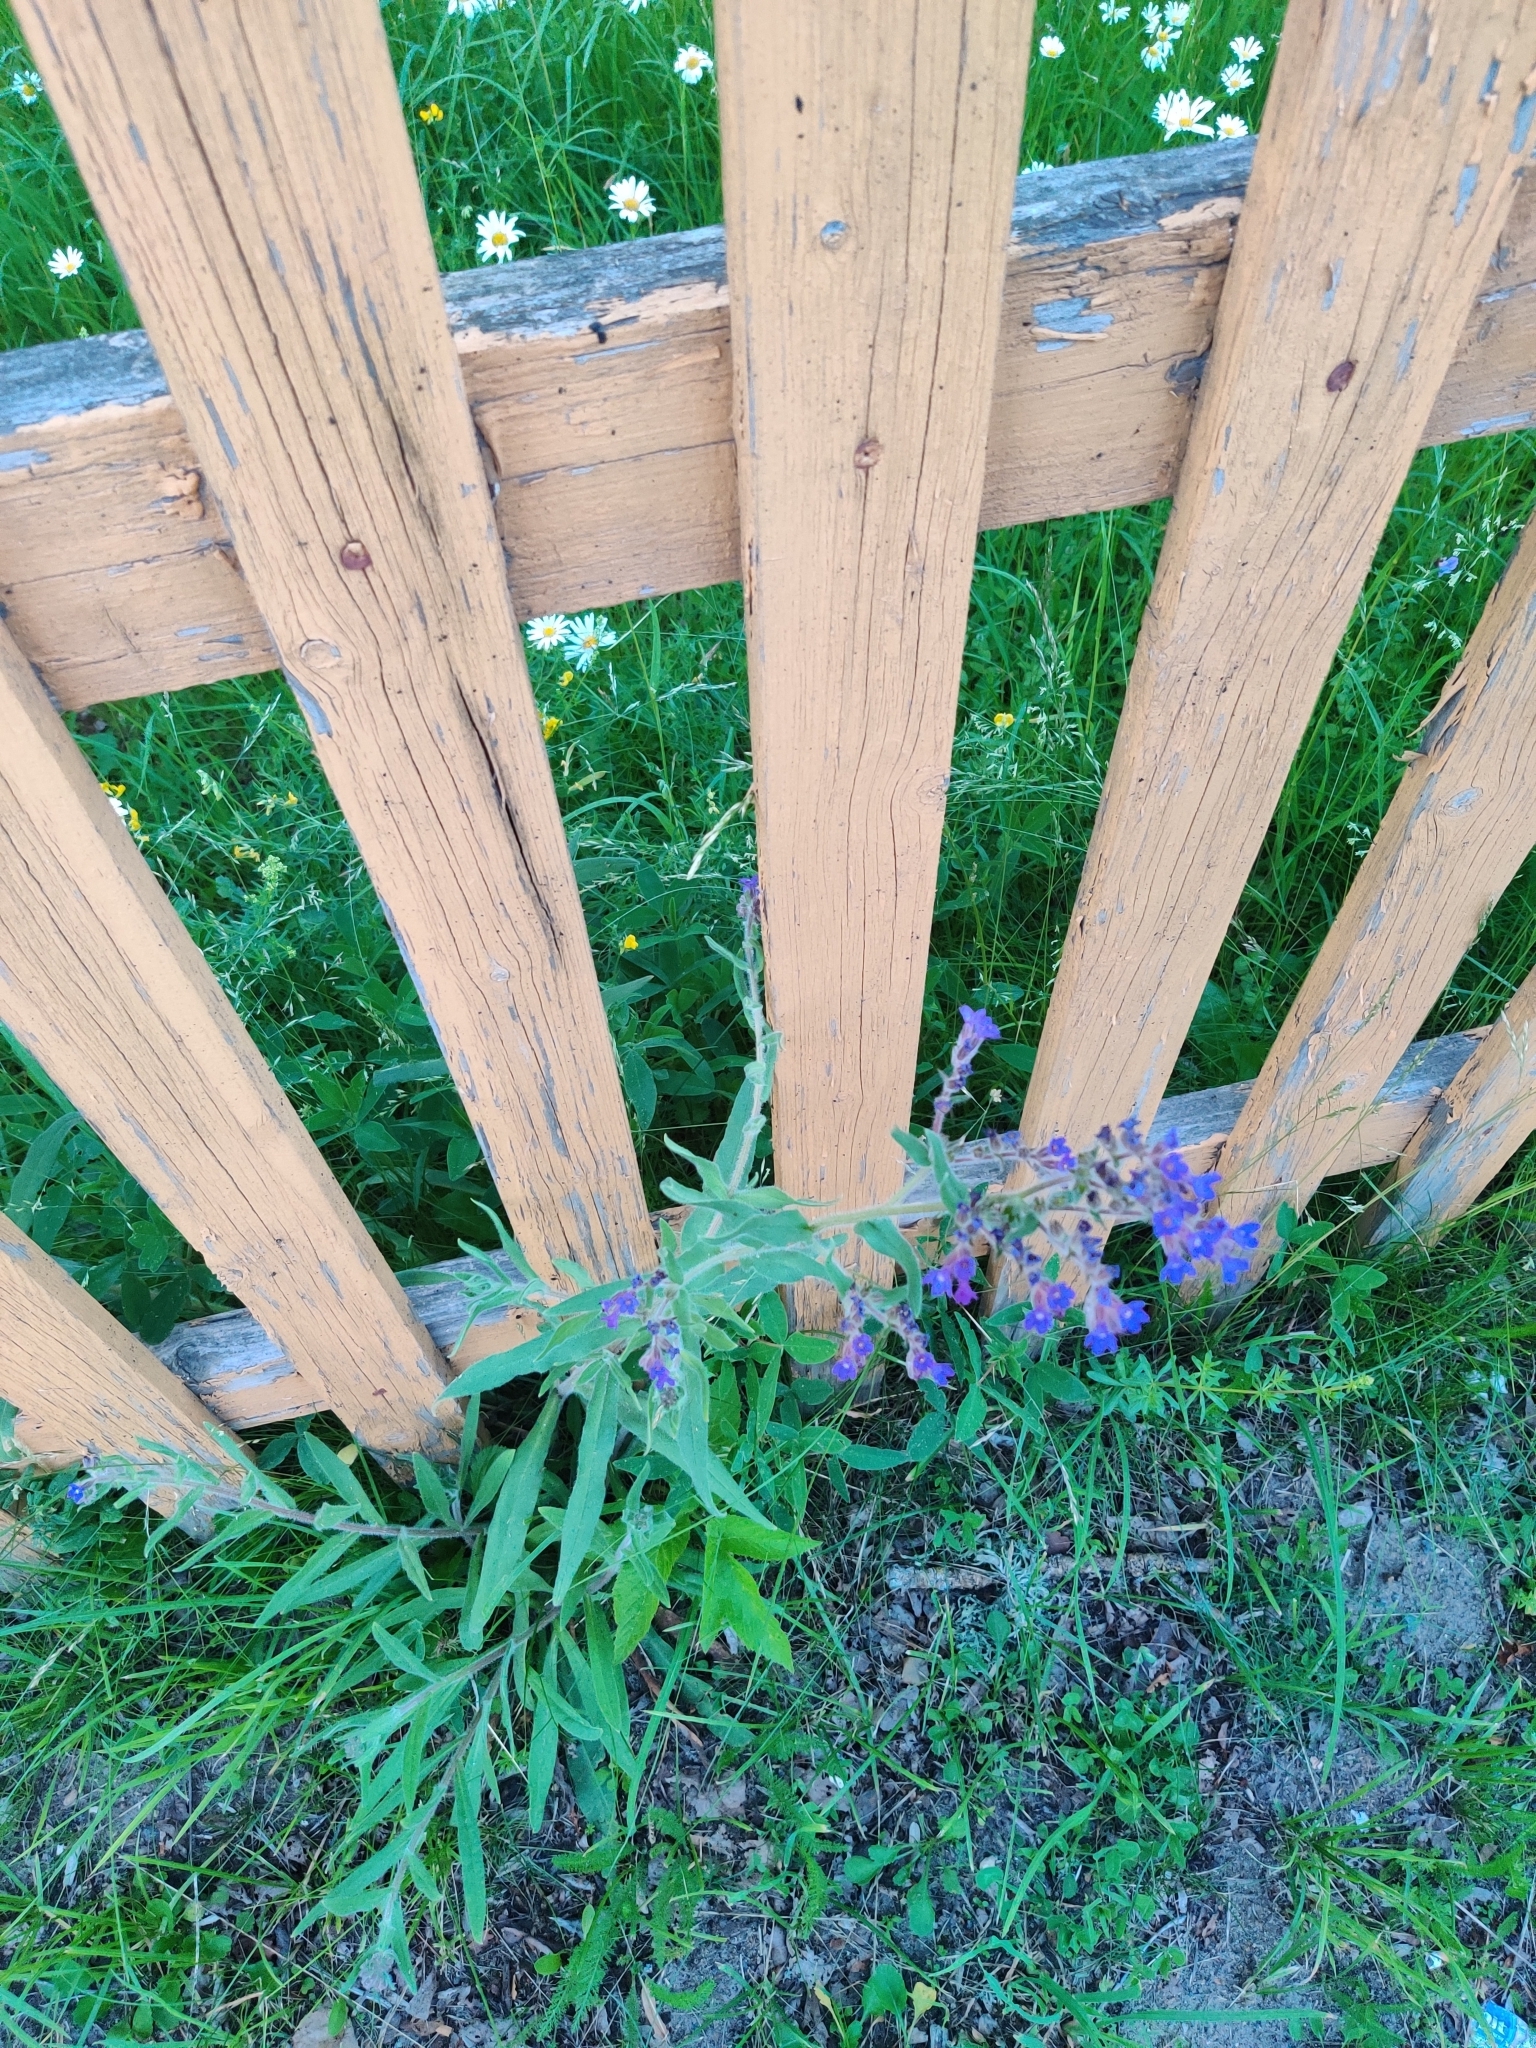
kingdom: Plantae
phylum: Tracheophyta
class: Magnoliopsida
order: Boraginales
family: Boraginaceae
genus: Anchusa
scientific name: Anchusa officinalis
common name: Alkanet
